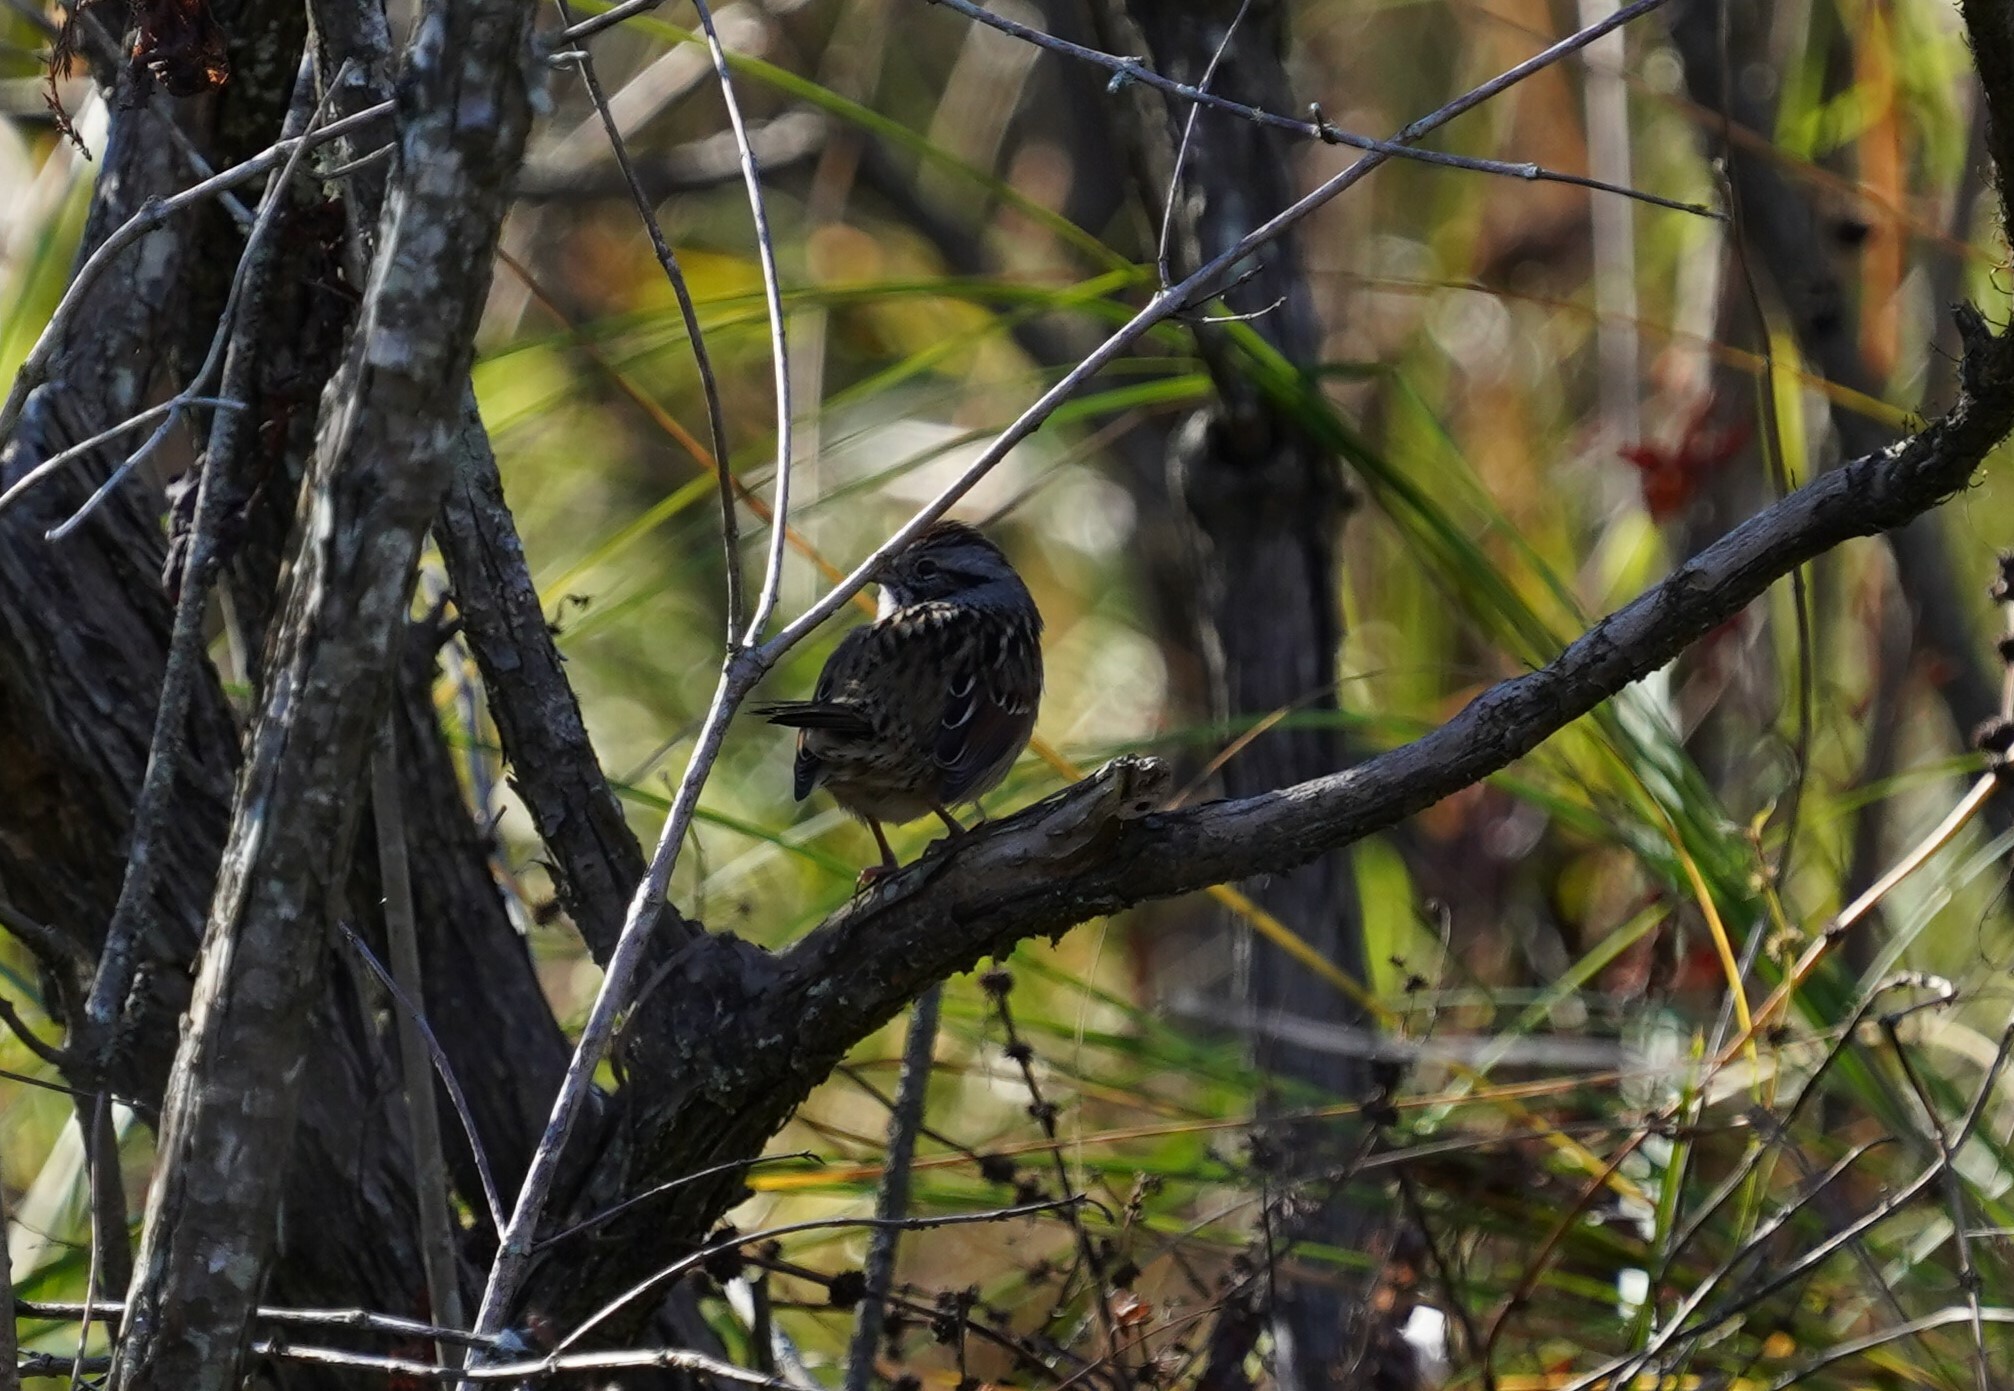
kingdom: Animalia
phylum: Chordata
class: Aves
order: Passeriformes
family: Passerellidae
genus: Melospiza
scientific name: Melospiza georgiana
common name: Swamp sparrow
